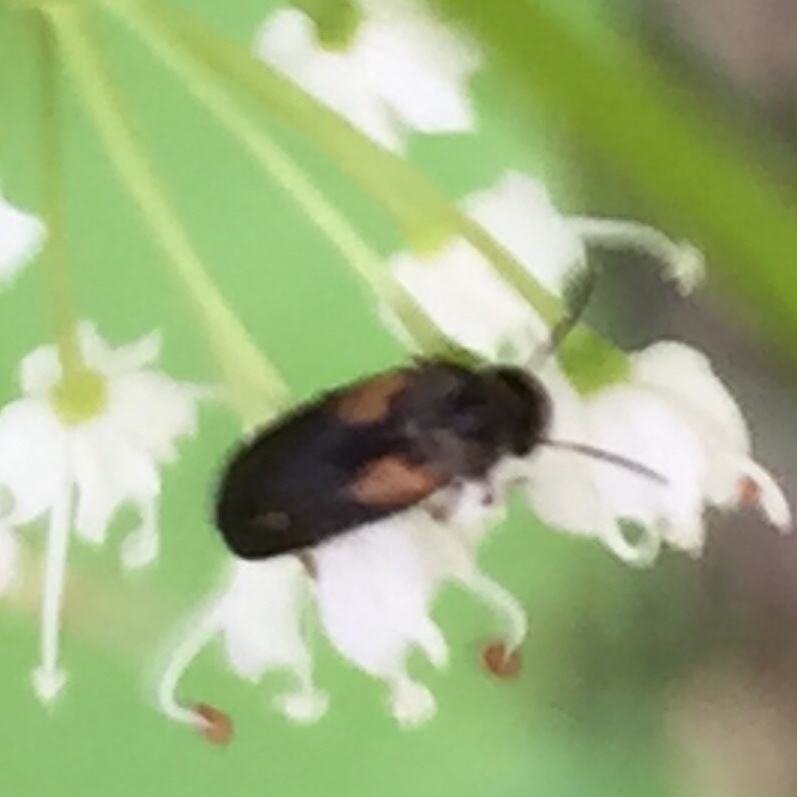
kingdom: Animalia
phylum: Arthropoda
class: Insecta
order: Coleoptera
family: Mordellidae
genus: Mordellochroa
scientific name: Mordellochroa scapularis
